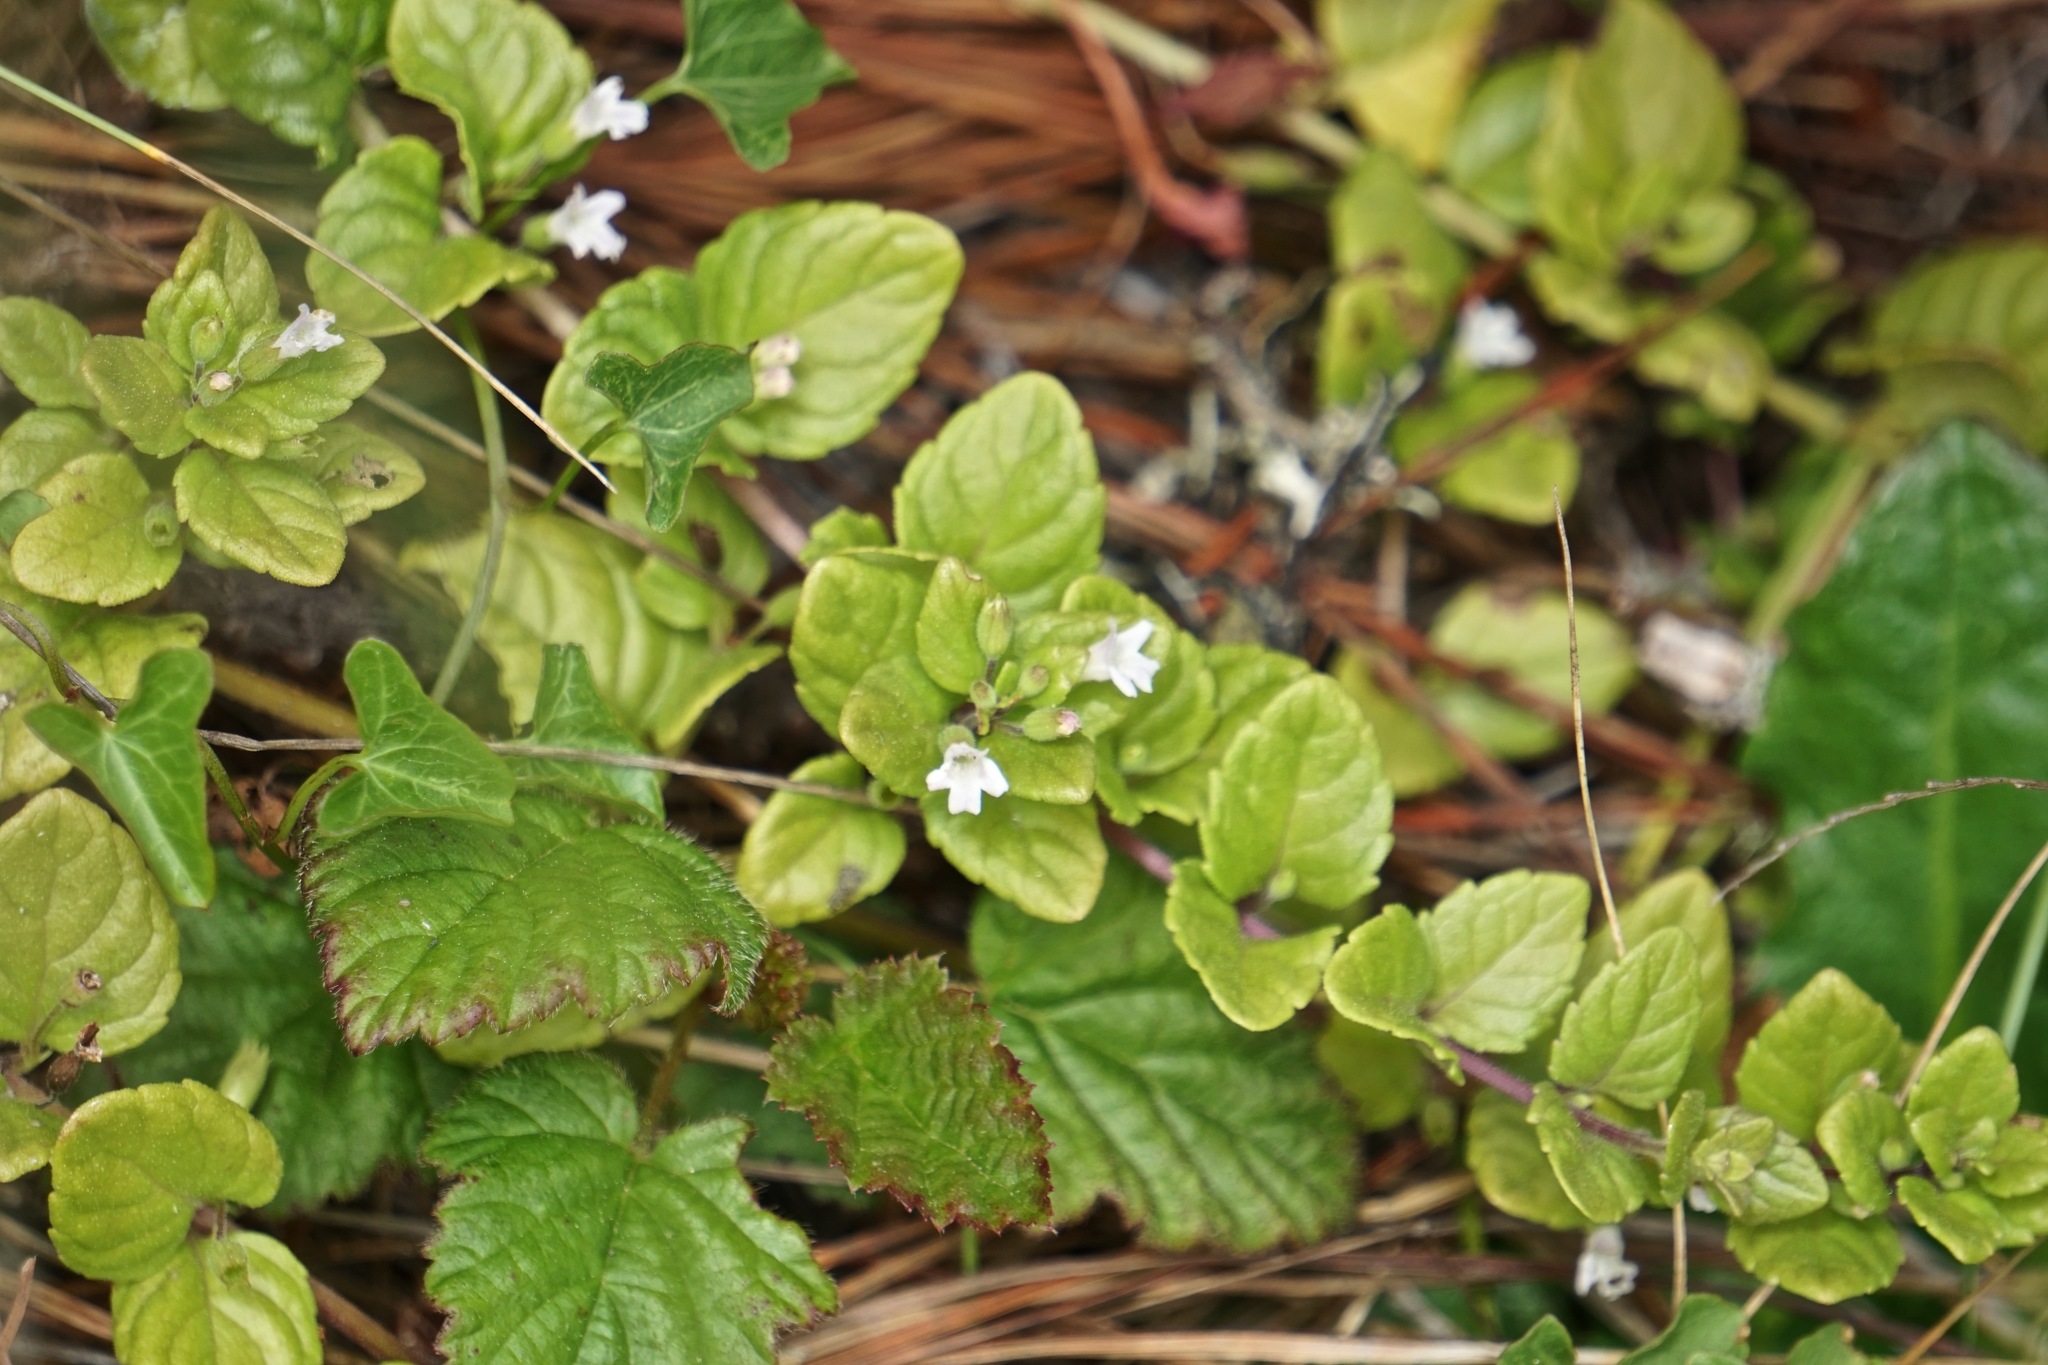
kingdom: Plantae
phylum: Tracheophyta
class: Magnoliopsida
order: Lamiales
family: Lamiaceae
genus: Micromeria
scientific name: Micromeria douglasii
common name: Yerba buena
